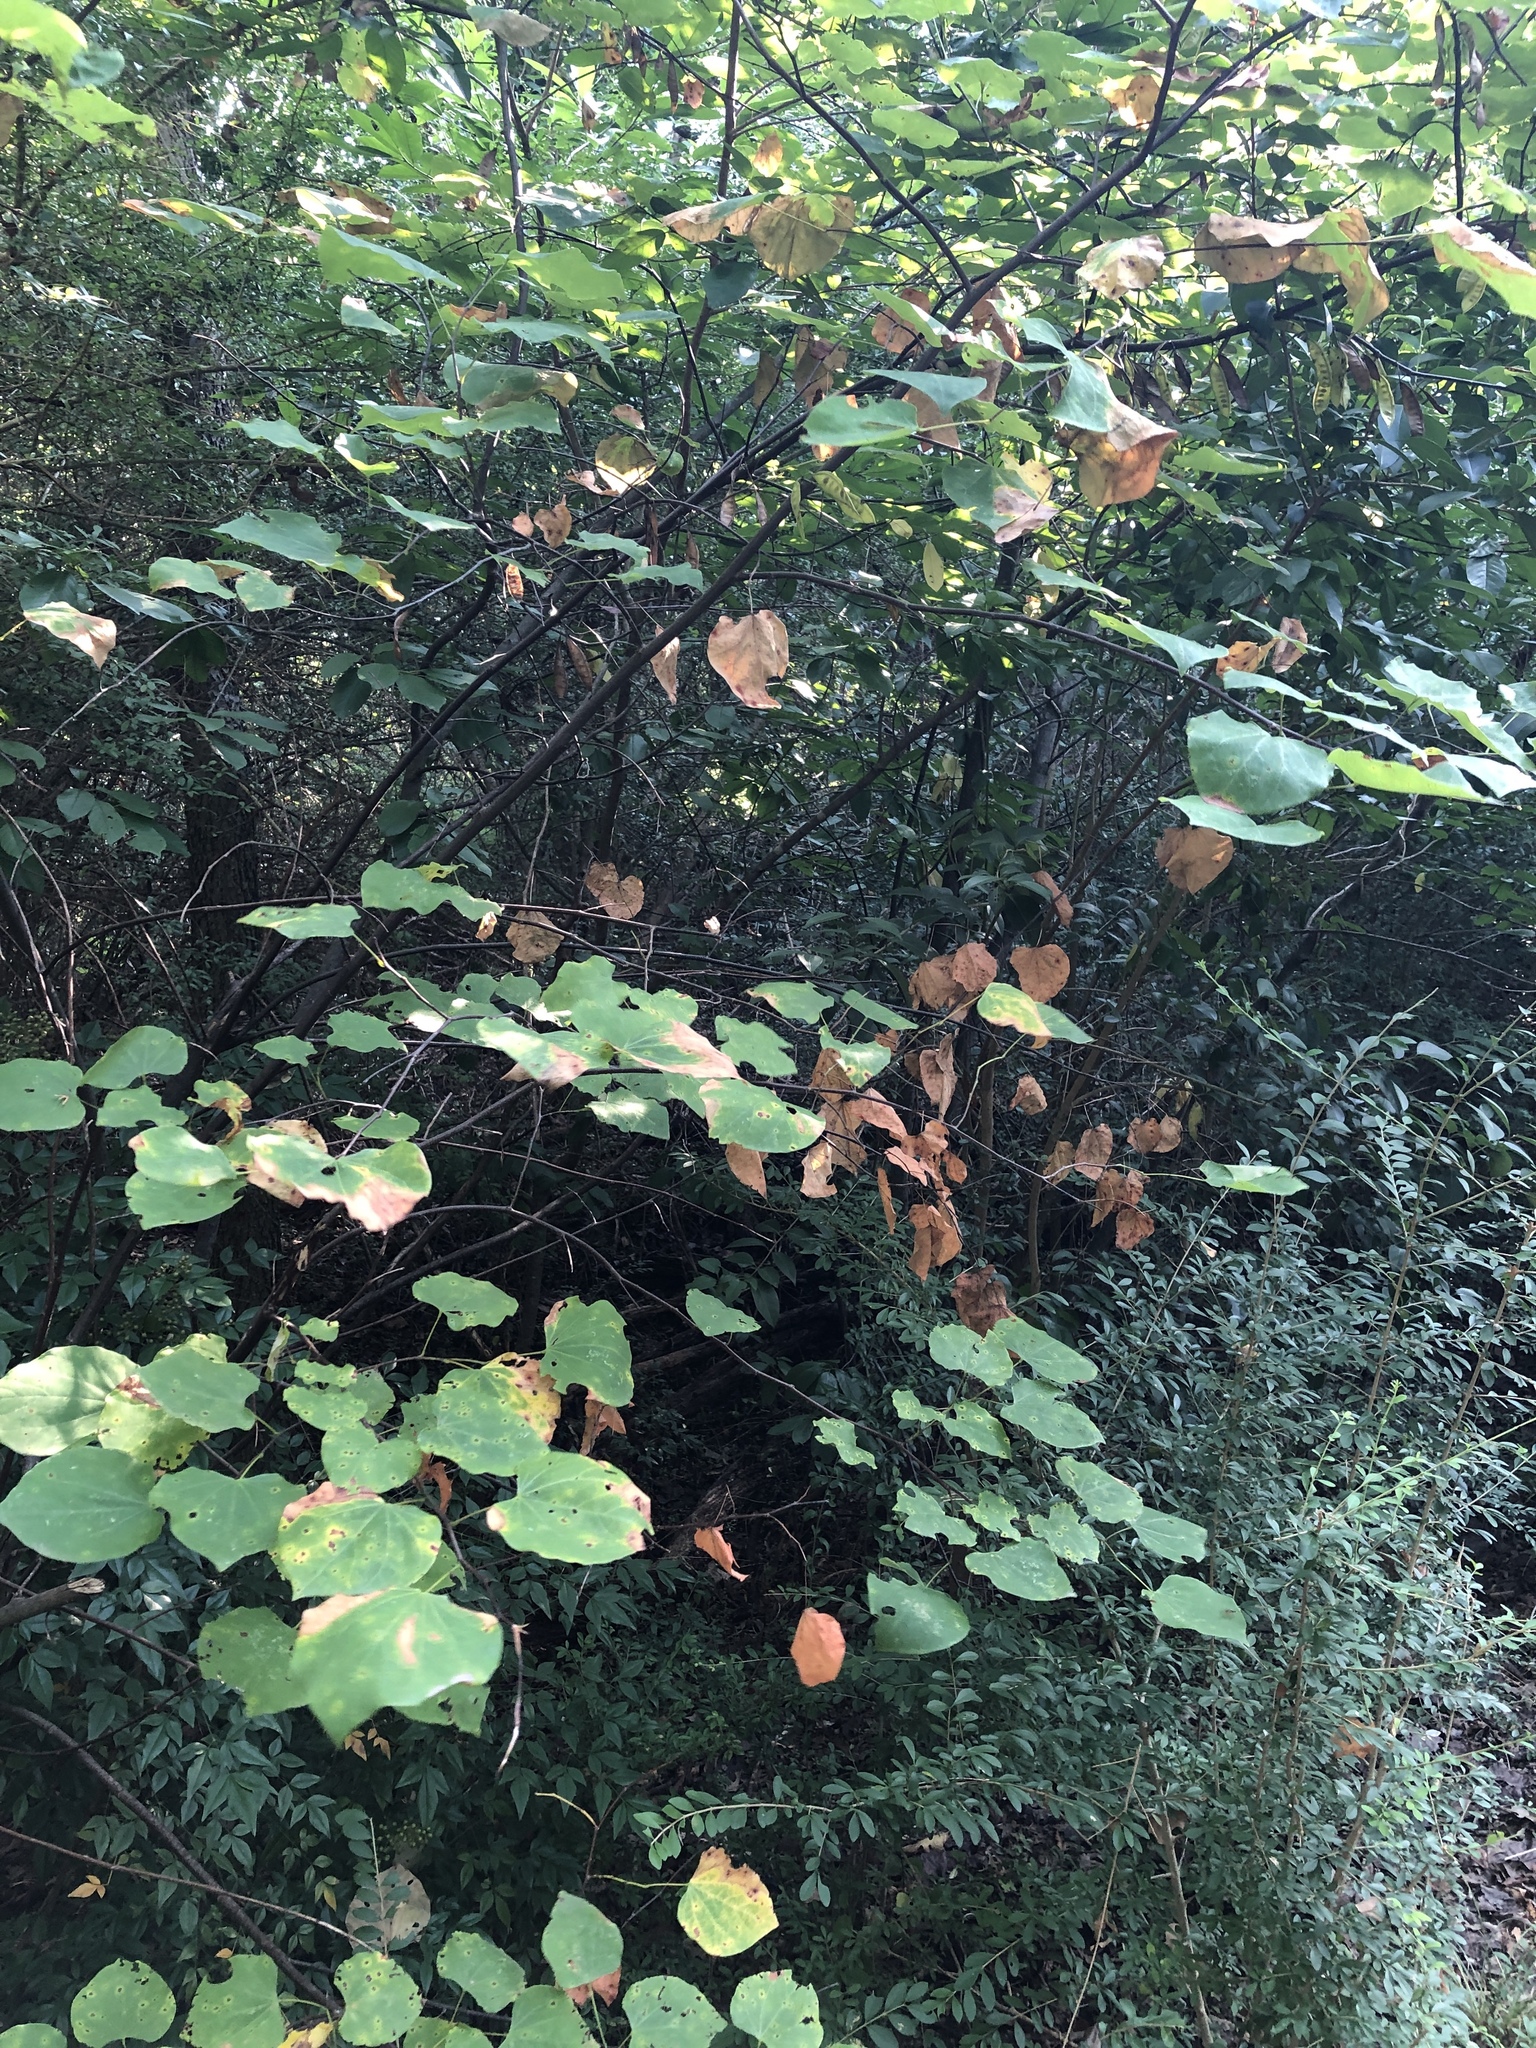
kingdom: Plantae
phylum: Tracheophyta
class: Magnoliopsida
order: Fabales
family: Fabaceae
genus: Cercis
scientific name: Cercis canadensis
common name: Eastern redbud
